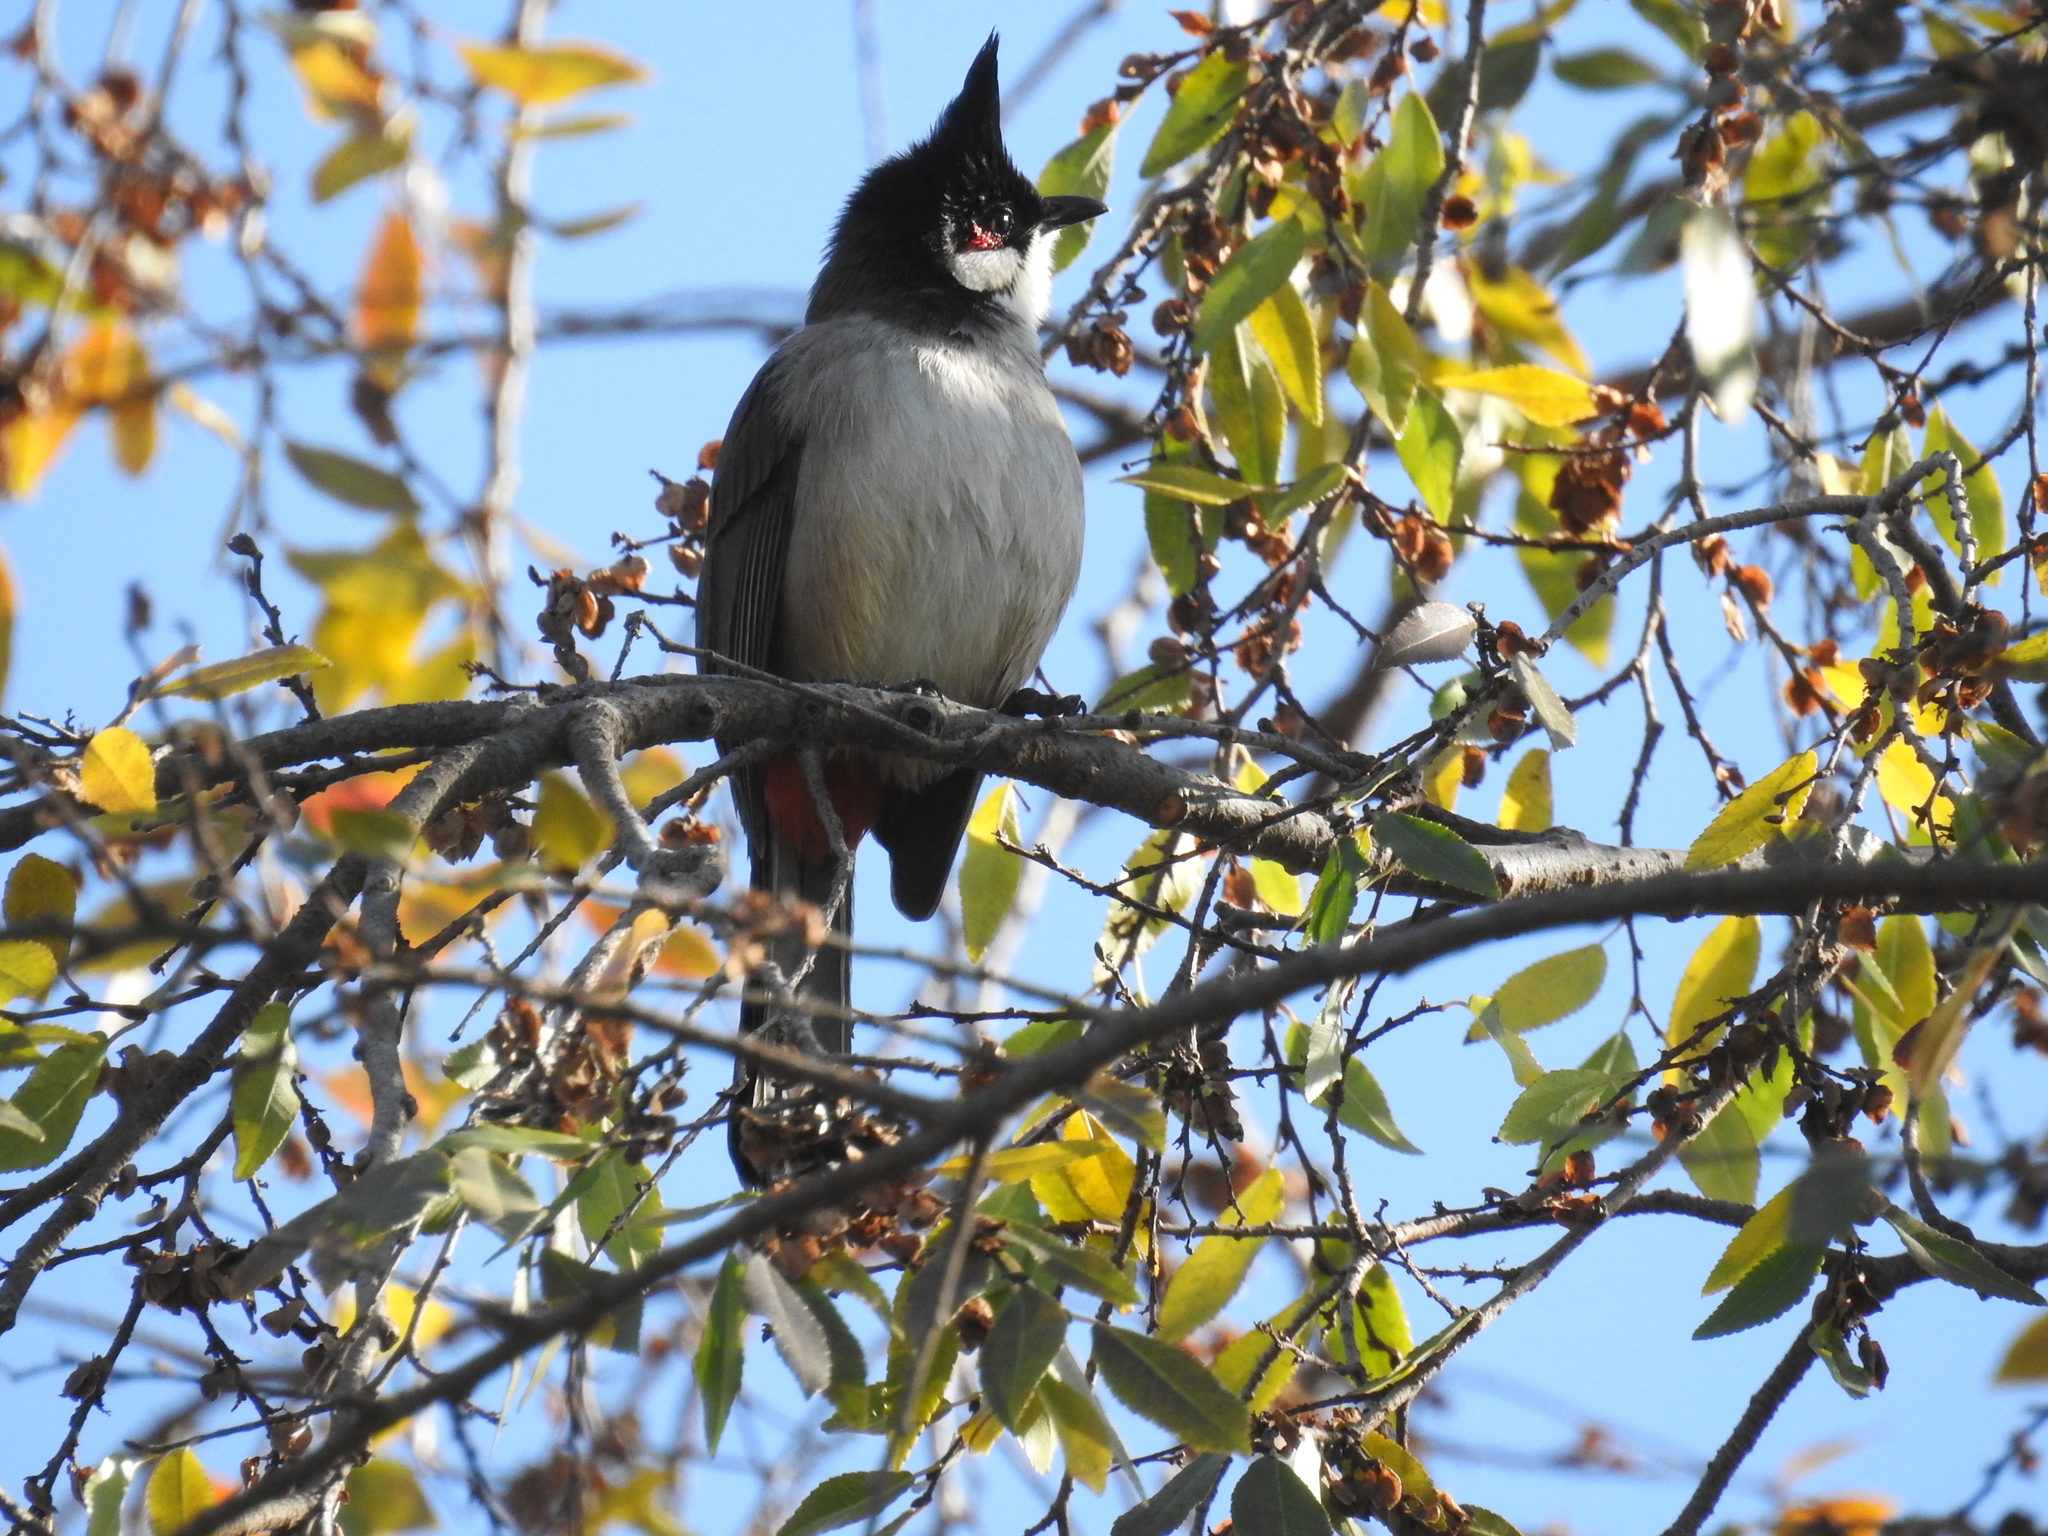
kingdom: Animalia
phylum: Chordata
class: Aves
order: Passeriformes
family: Pycnonotidae
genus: Pycnonotus
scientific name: Pycnonotus jocosus
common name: Red-whiskered bulbul
